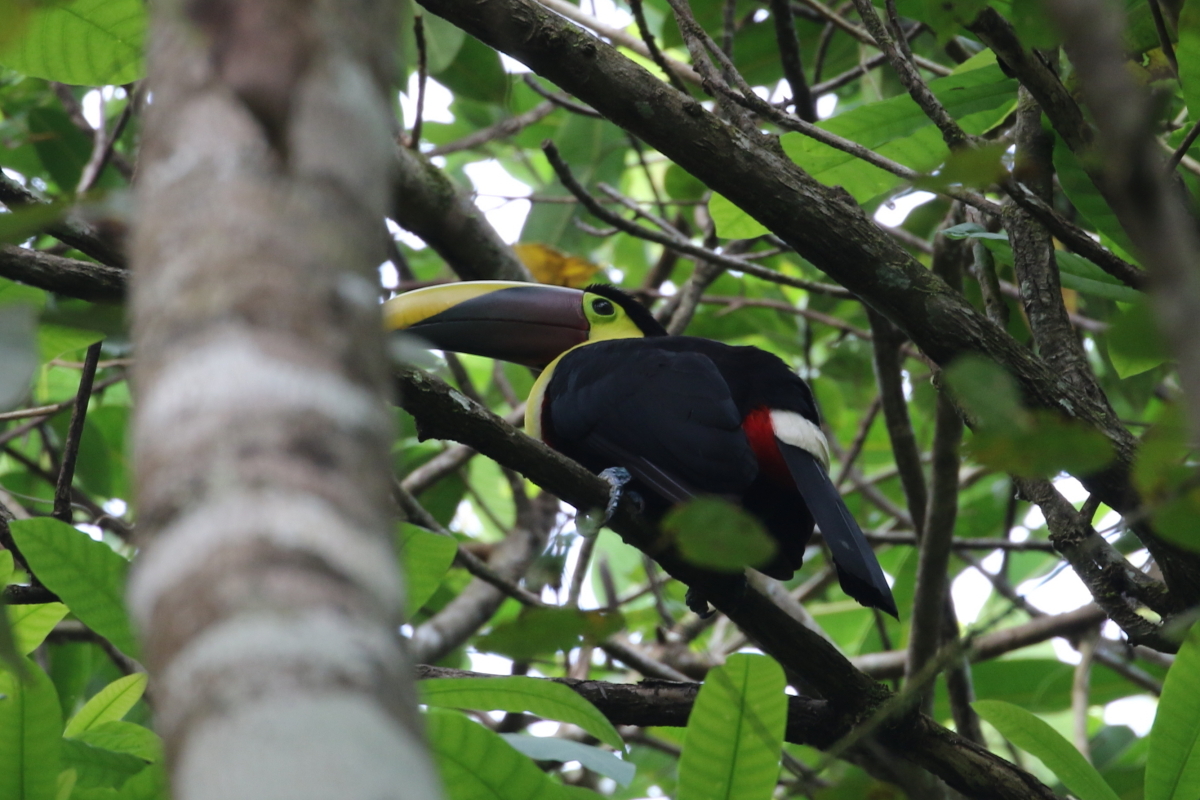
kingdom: Animalia
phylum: Chordata
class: Aves
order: Piciformes
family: Ramphastidae
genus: Ramphastos
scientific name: Ramphastos ambiguus
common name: Yellow-throated toucan
